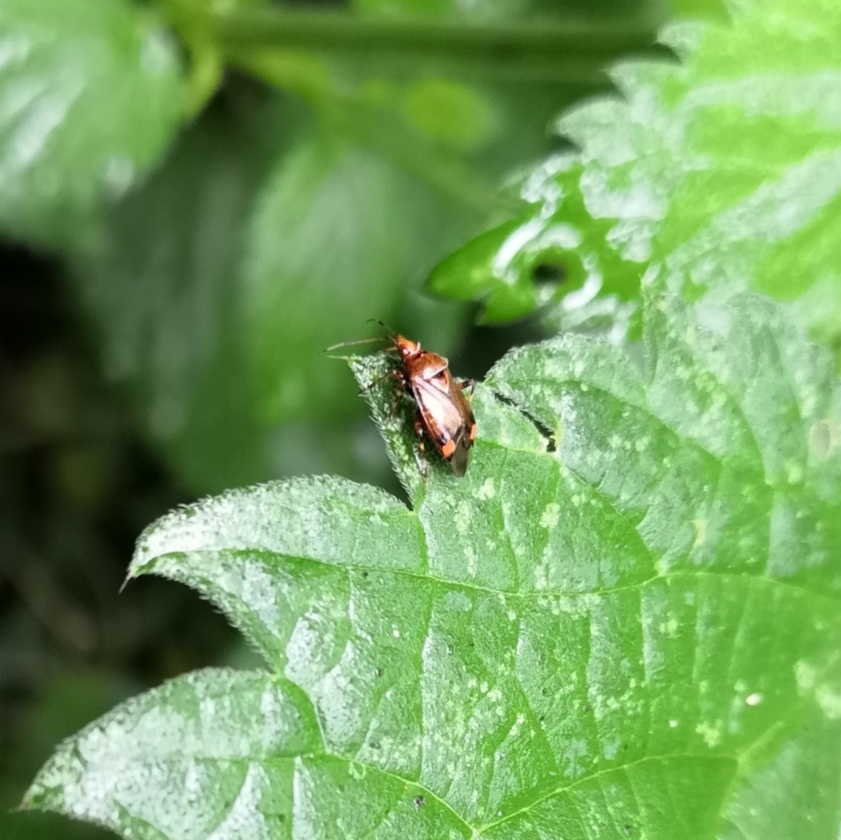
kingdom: Animalia
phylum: Arthropoda
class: Insecta
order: Hemiptera
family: Miridae
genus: Deraeocoris
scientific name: Deraeocoris flavilinea
